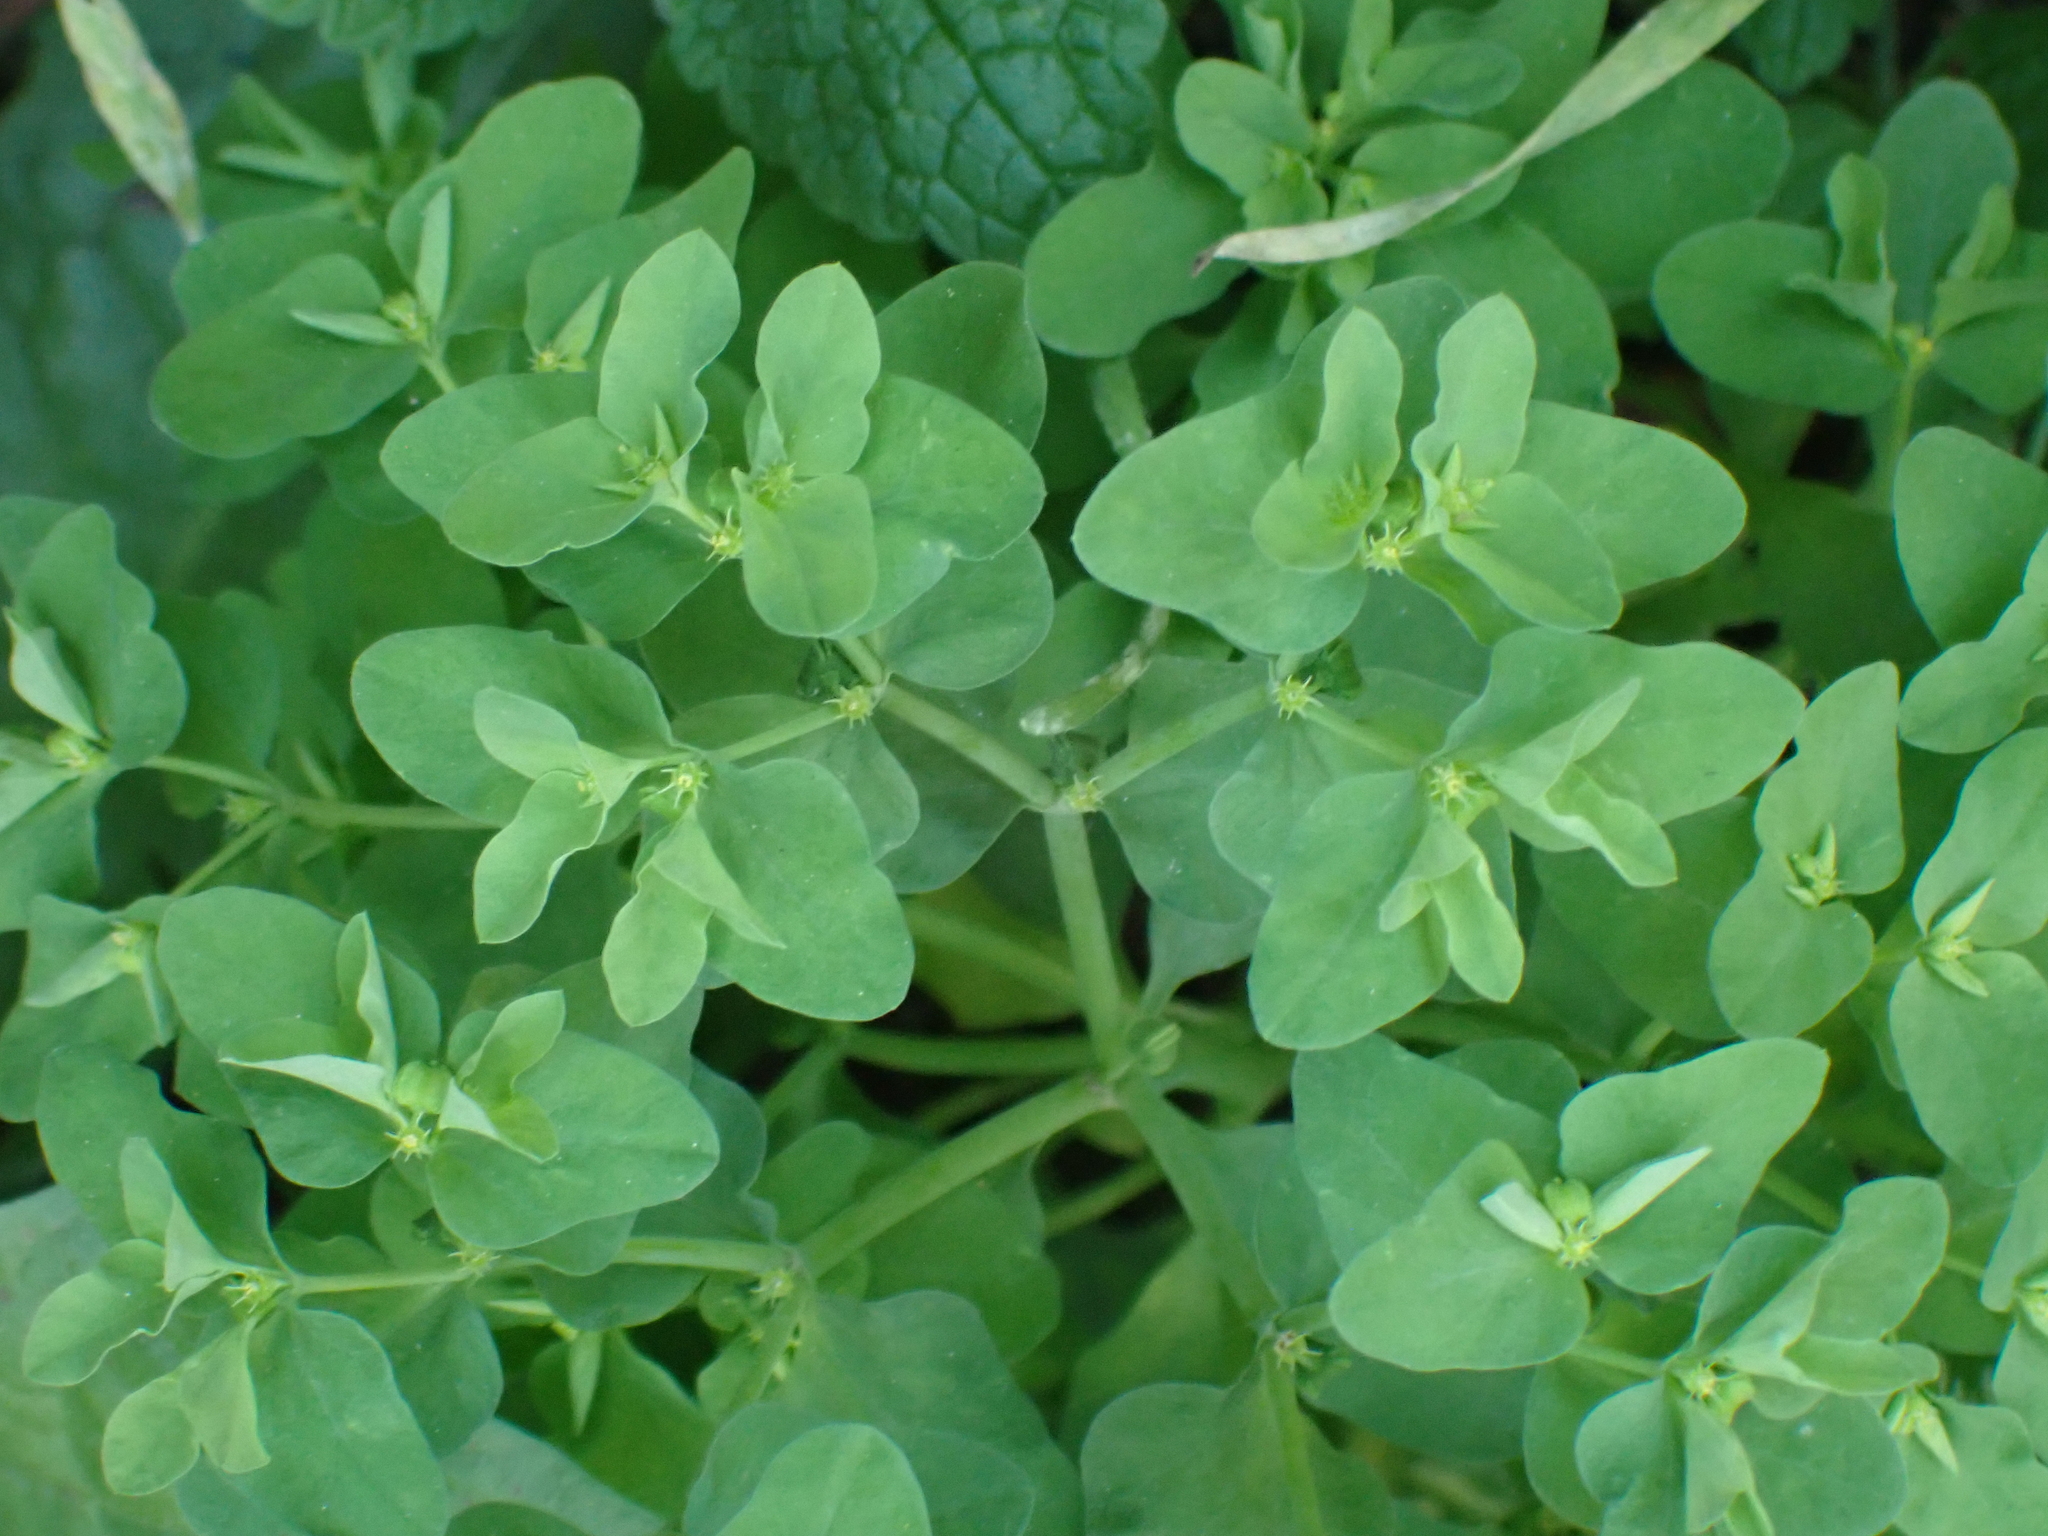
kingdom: Plantae
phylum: Tracheophyta
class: Magnoliopsida
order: Malpighiales
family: Euphorbiaceae
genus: Euphorbia
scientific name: Euphorbia peplus
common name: Petty spurge
